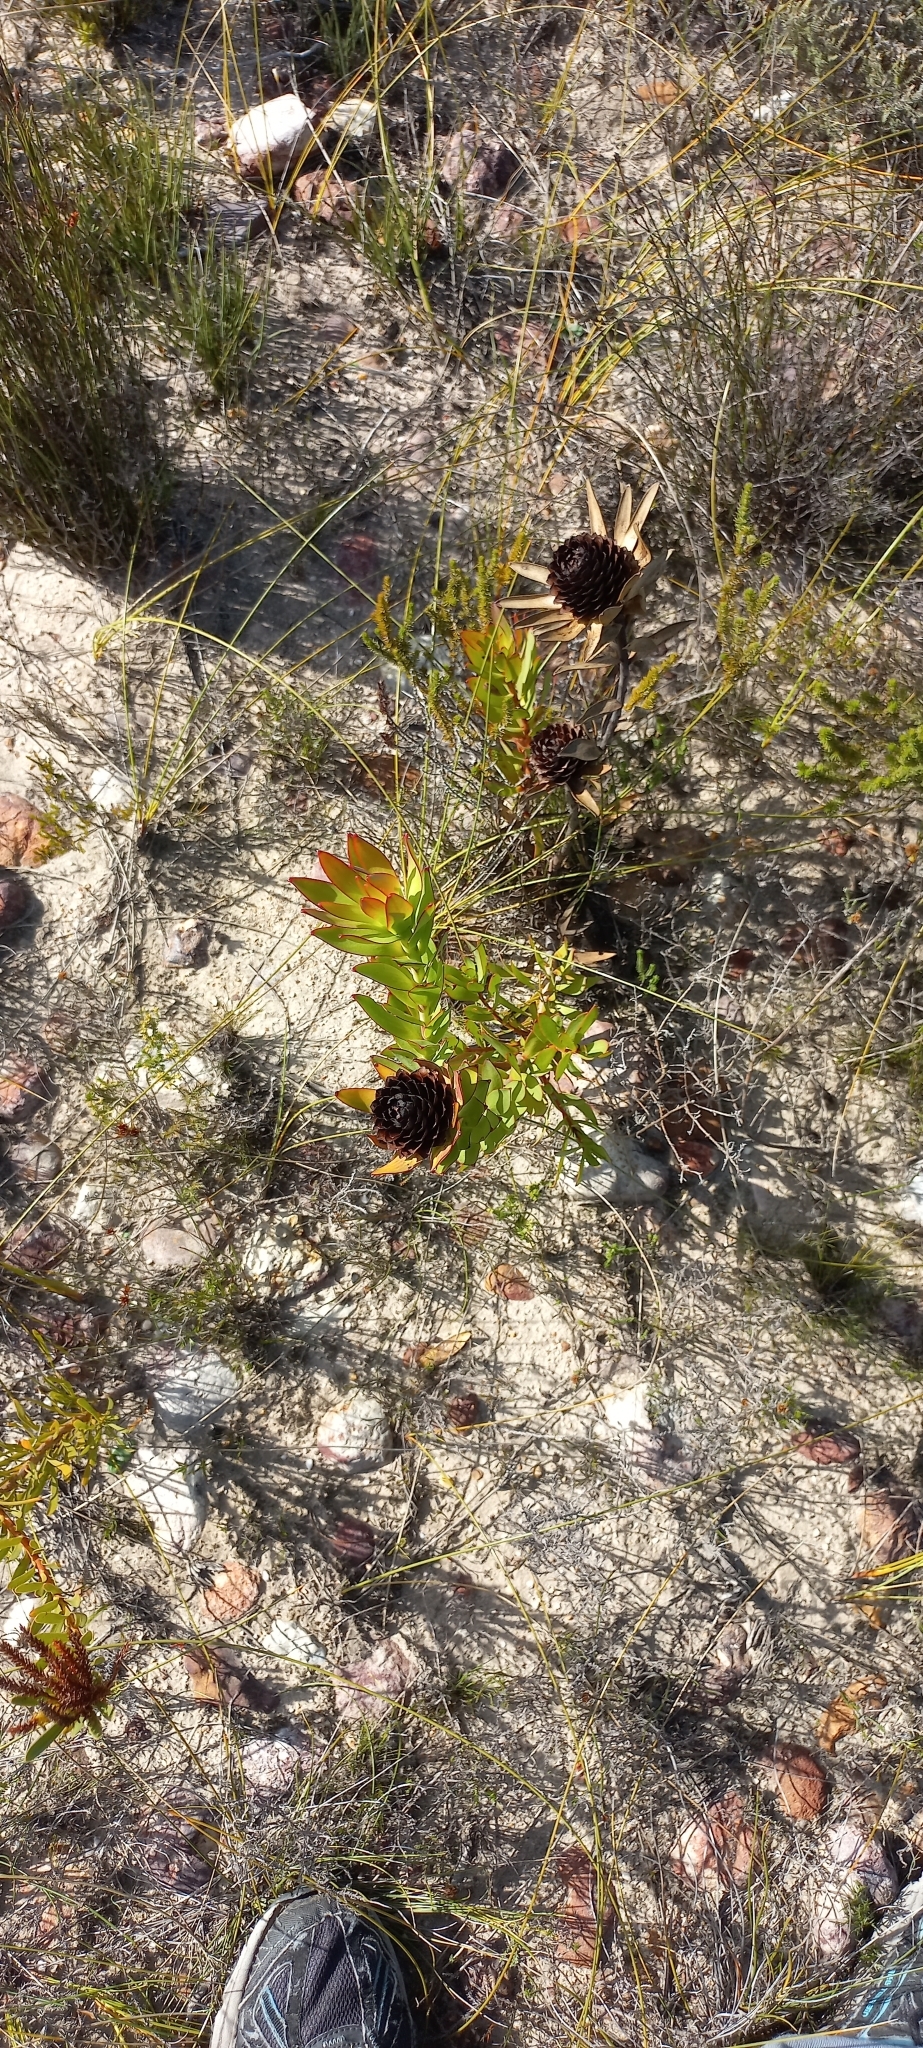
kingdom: Plantae
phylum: Tracheophyta
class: Magnoliopsida
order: Proteales
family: Proteaceae
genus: Leucadendron
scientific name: Leucadendron elimense
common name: Elim conebush
